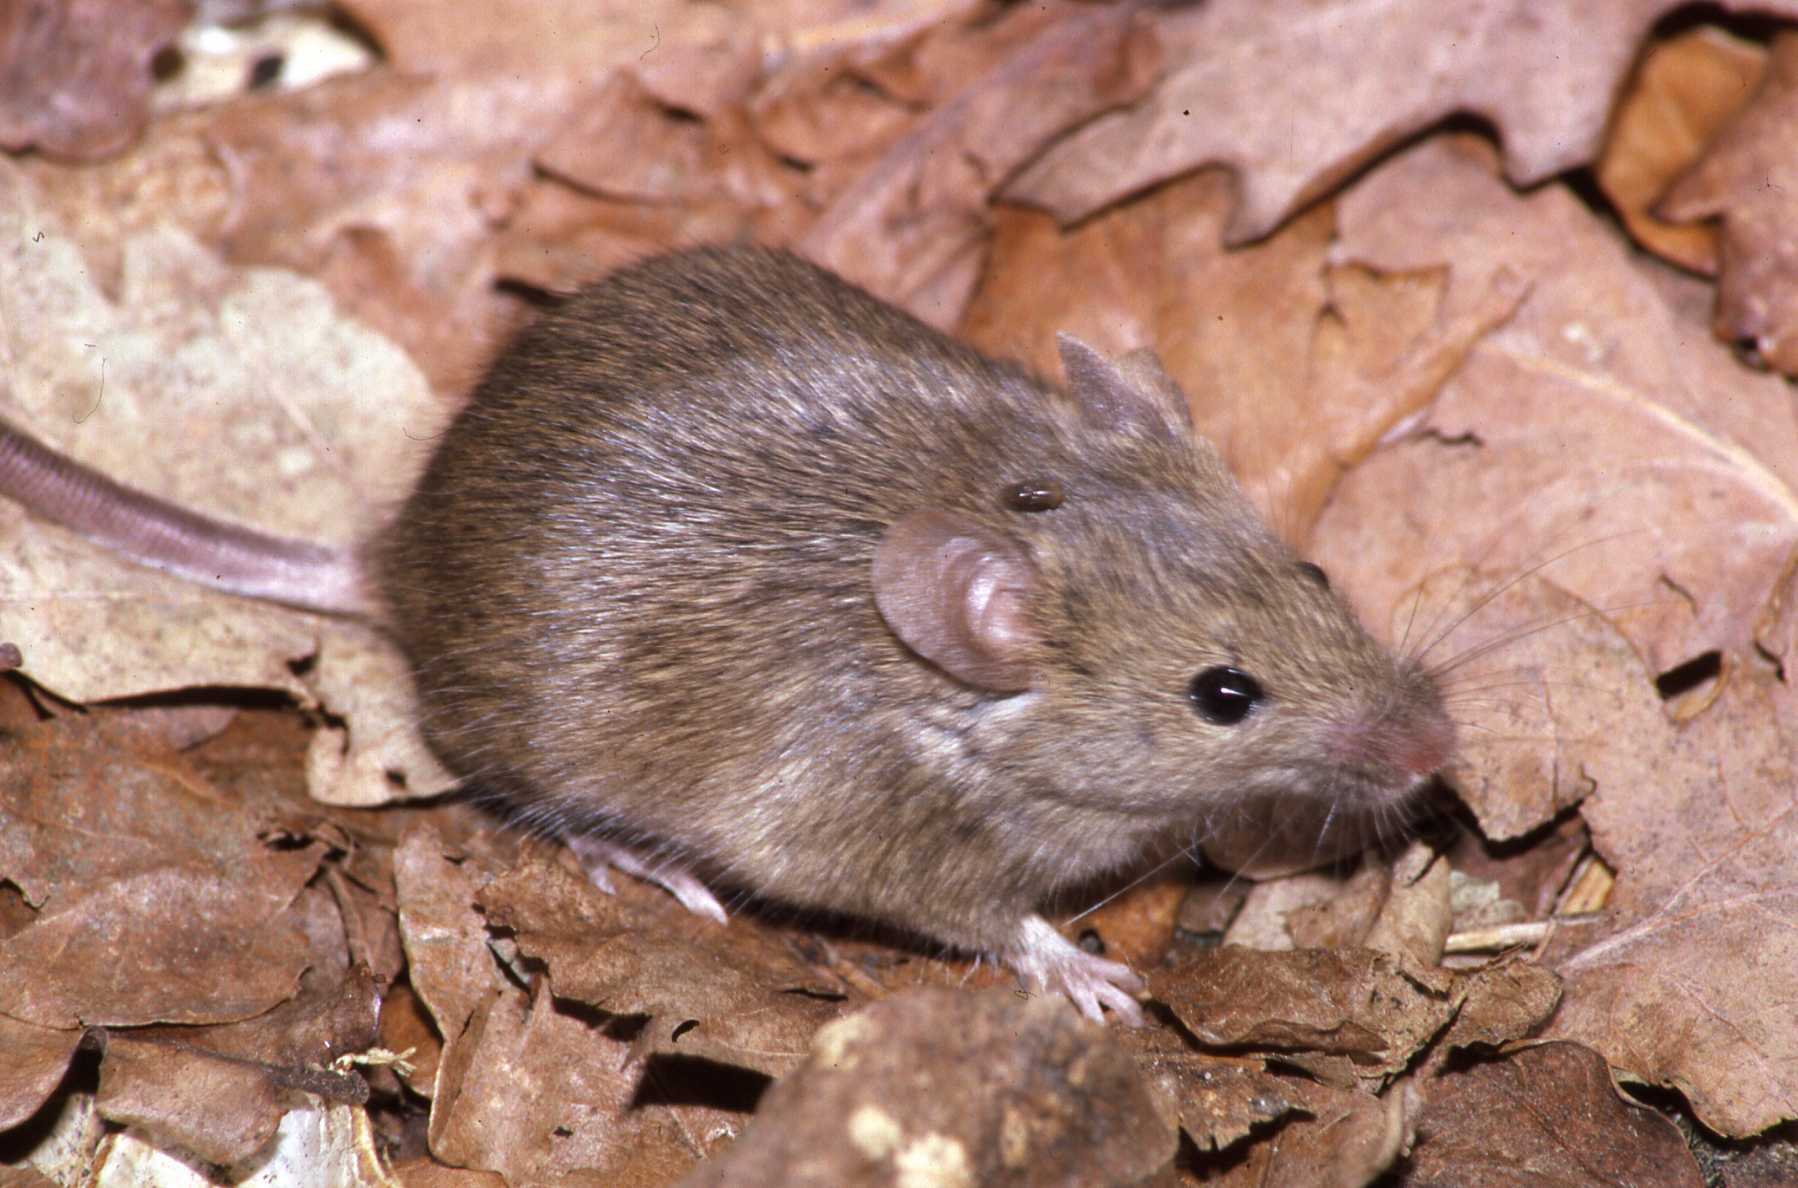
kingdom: Animalia
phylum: Chordata
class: Mammalia
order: Rodentia
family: Muridae
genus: Mus
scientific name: Mus musculus
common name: House mouse
